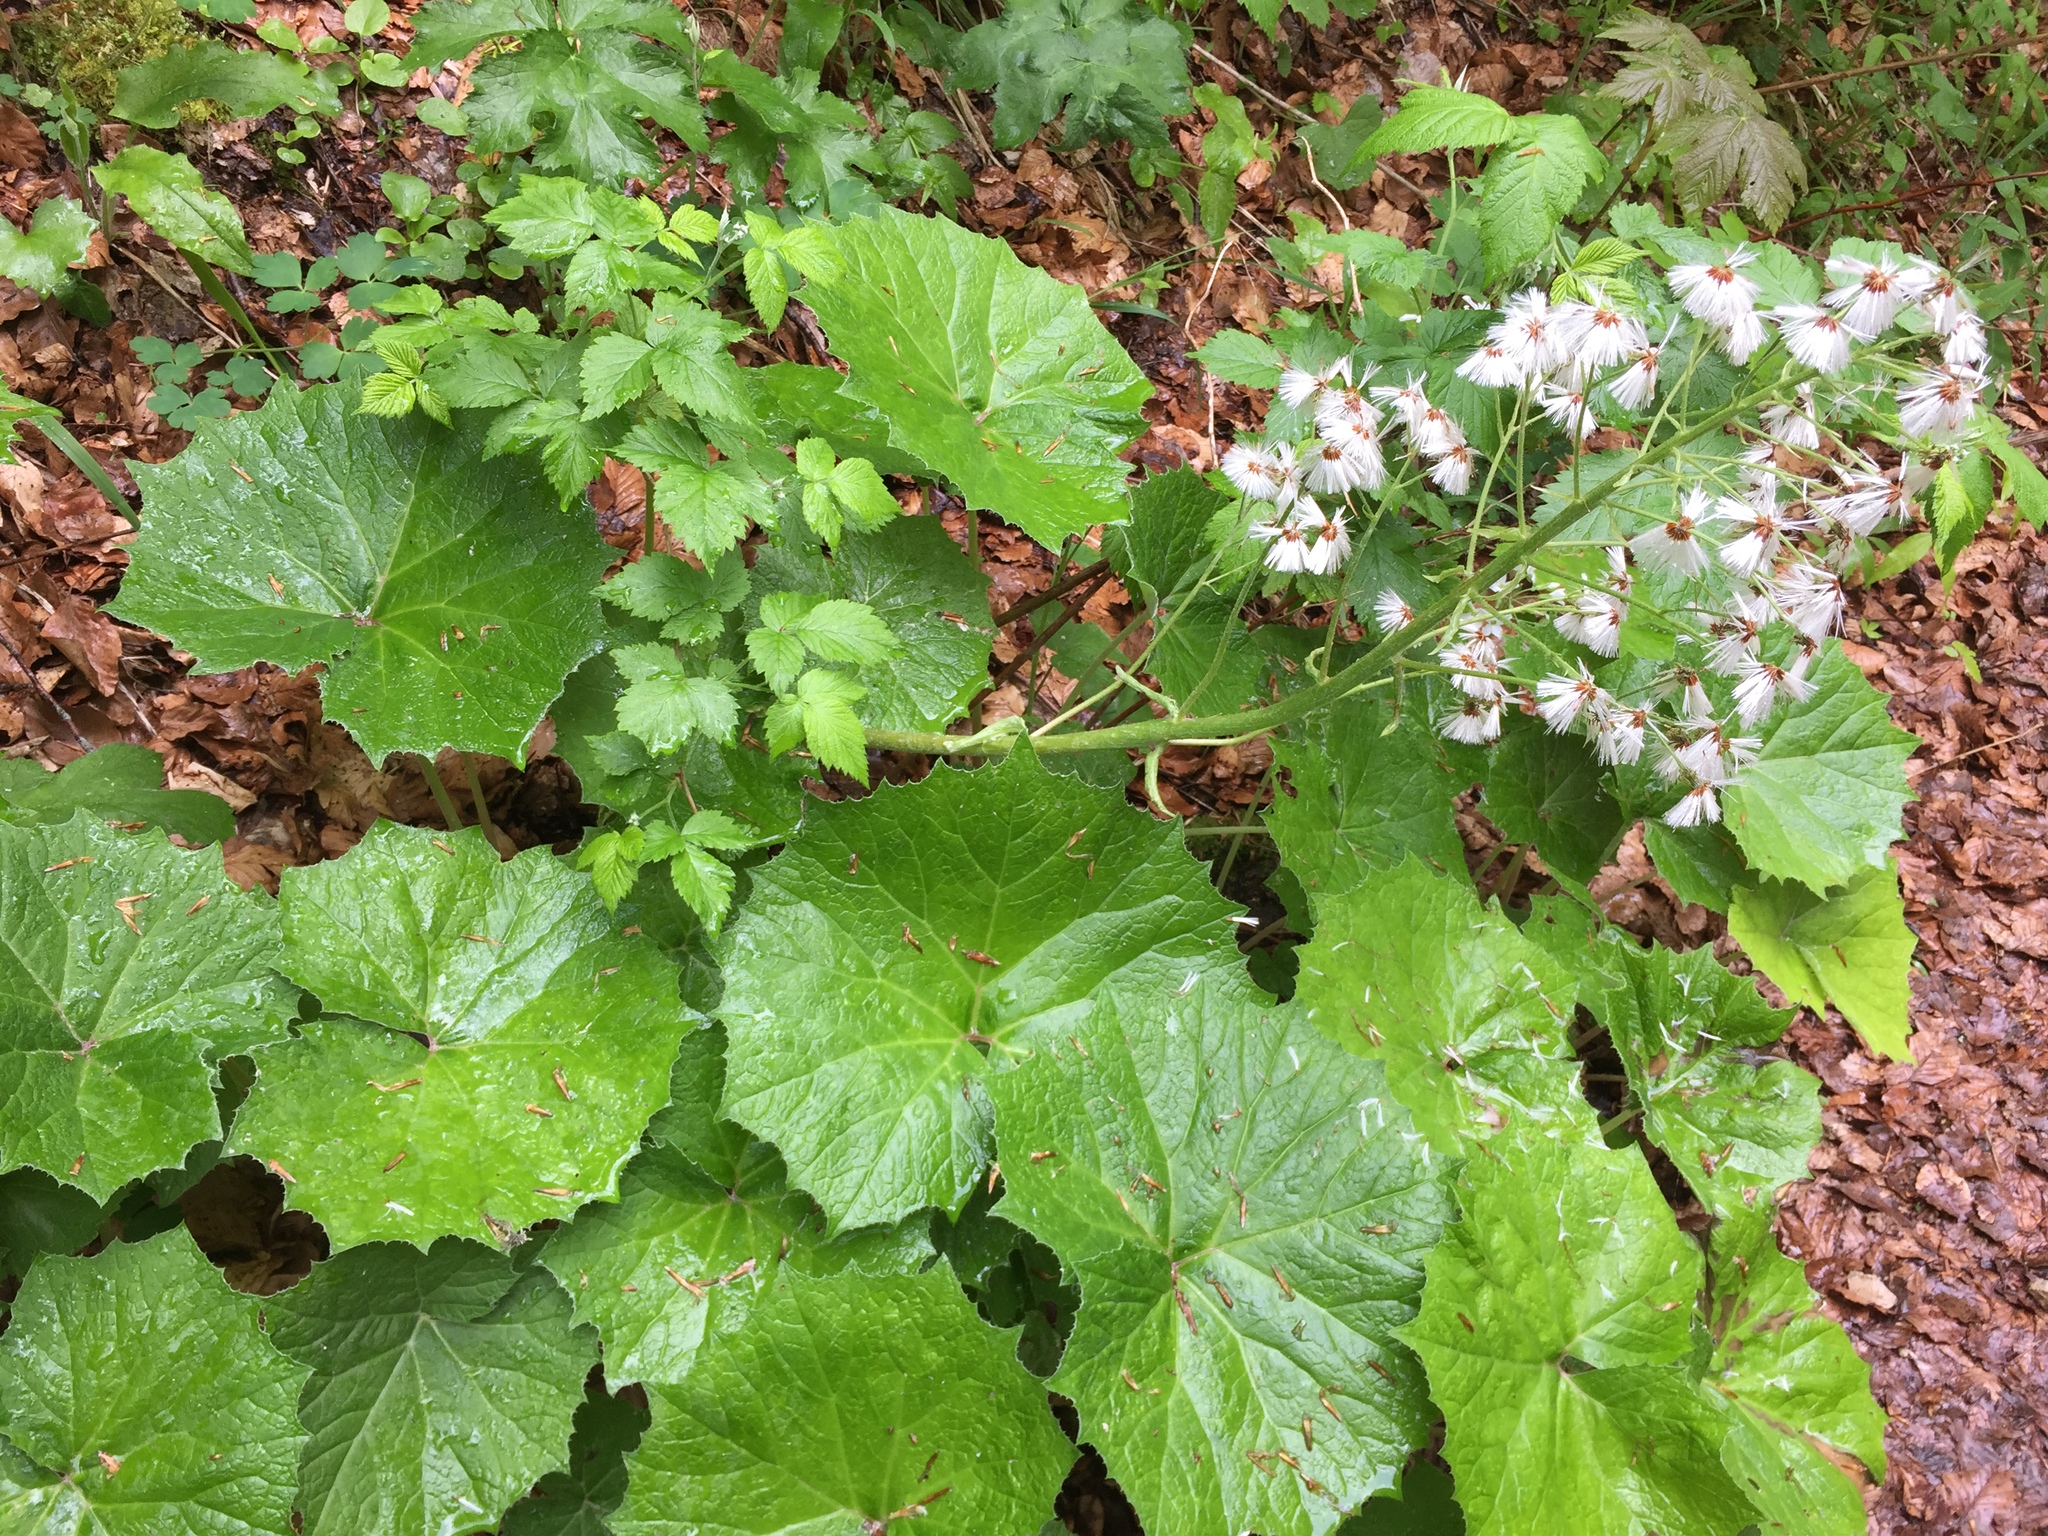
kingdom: Plantae
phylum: Tracheophyta
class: Magnoliopsida
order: Asterales
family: Asteraceae
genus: Petasites
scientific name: Petasites albus
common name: White butterbur
